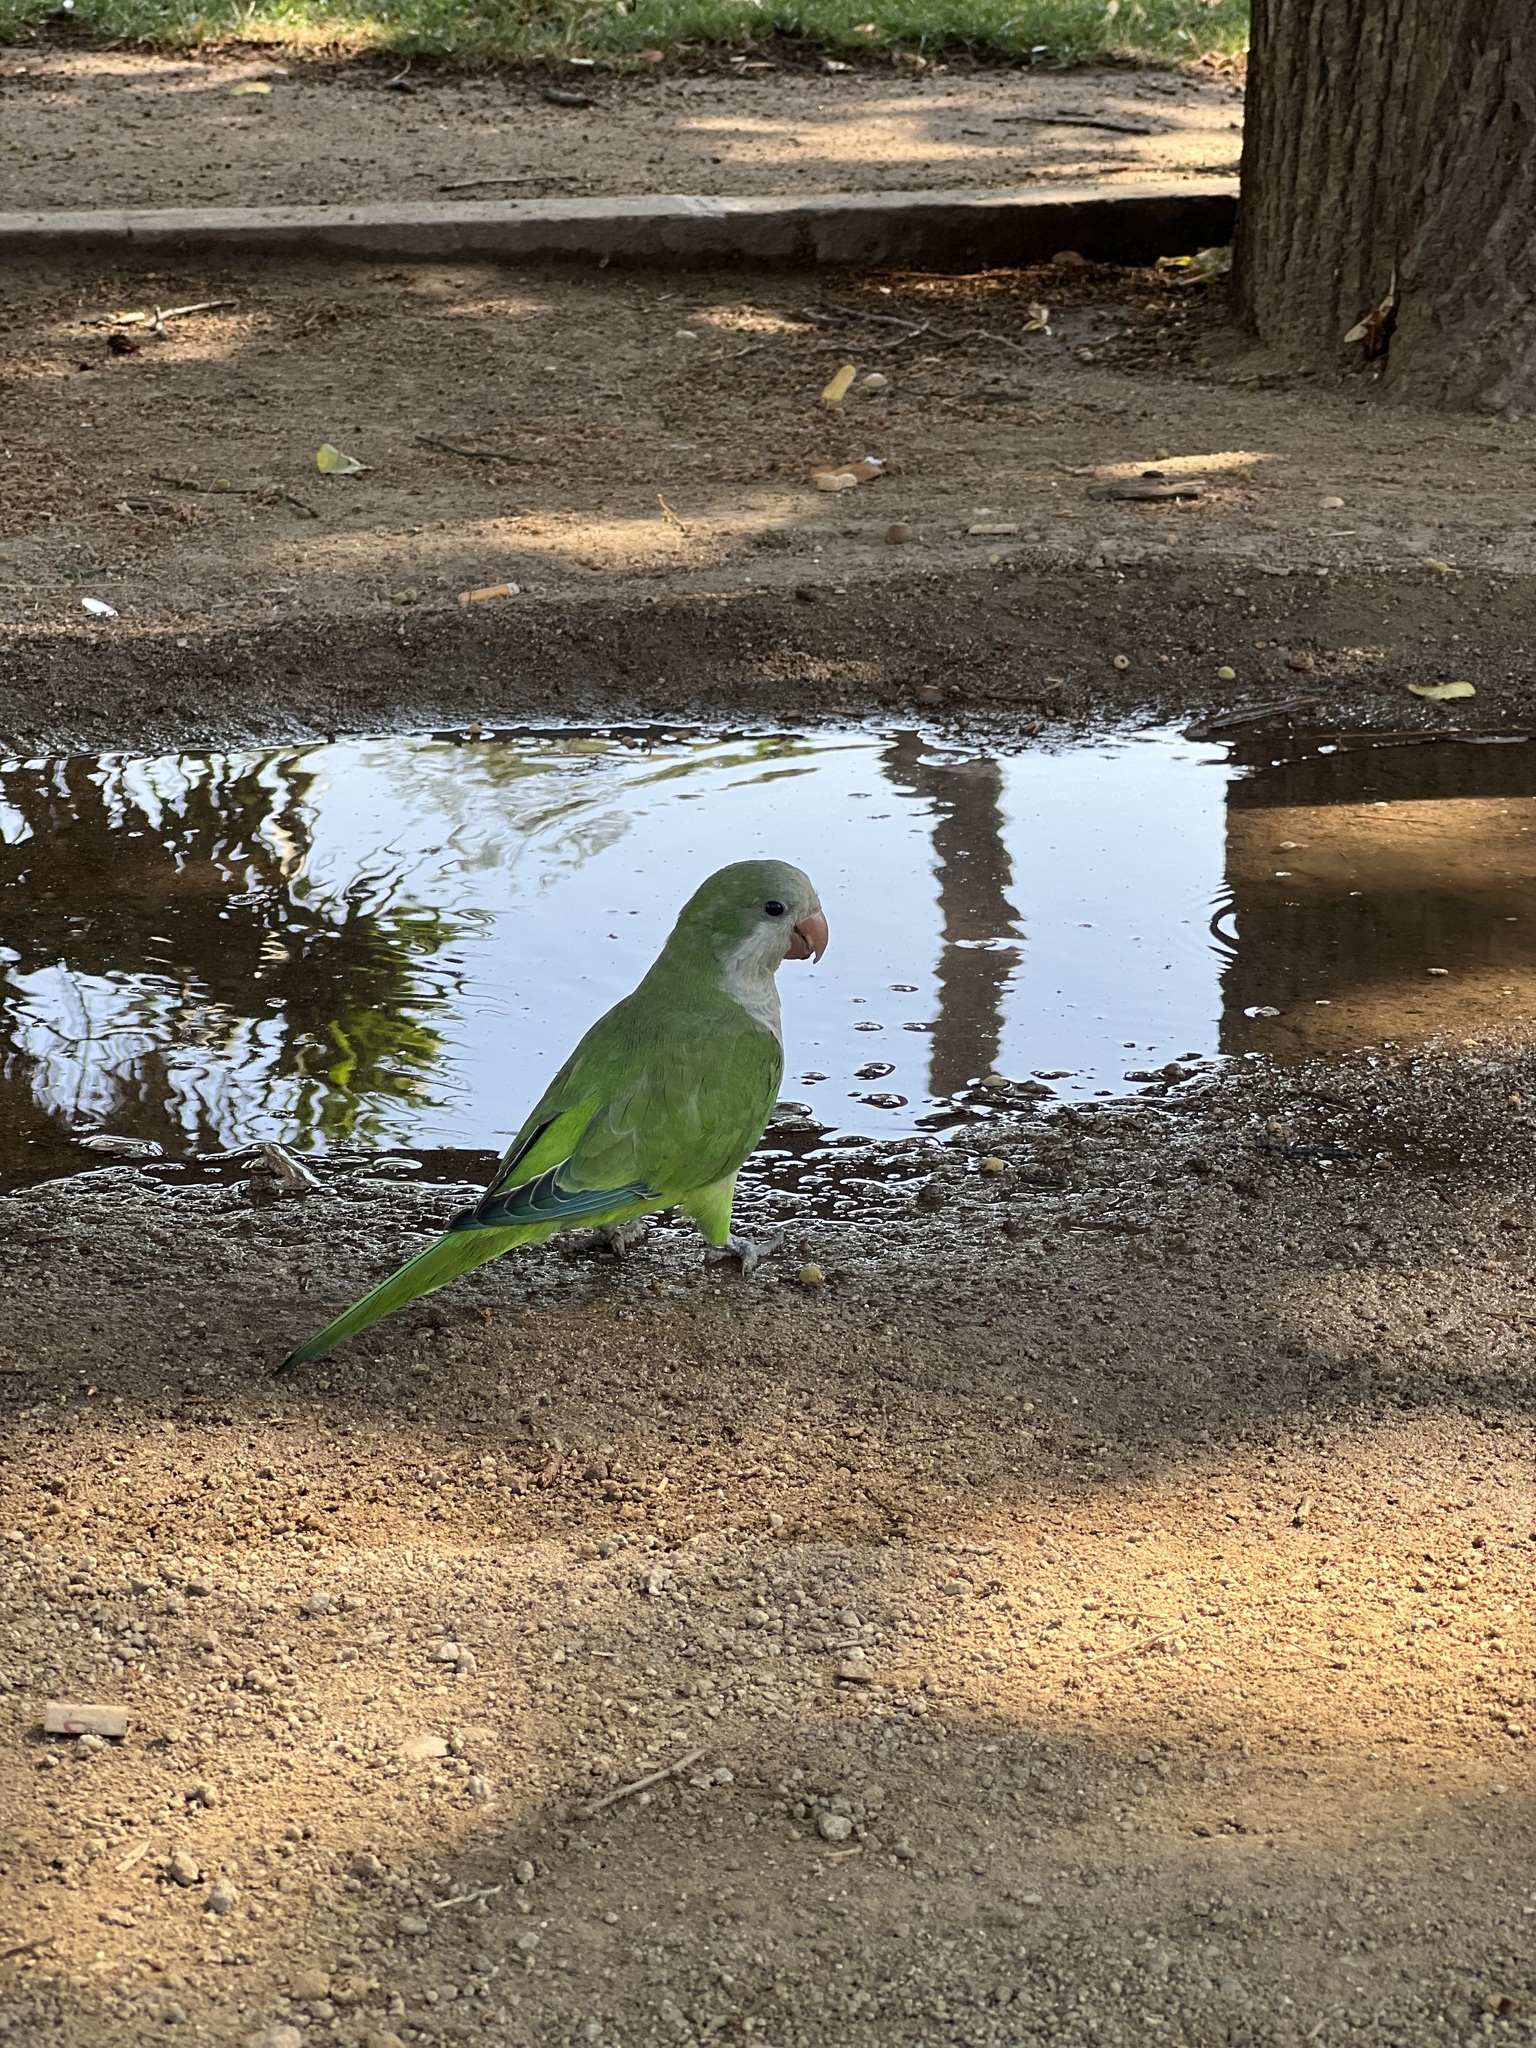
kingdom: Animalia
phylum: Chordata
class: Aves
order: Psittaciformes
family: Psittacidae
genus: Myiopsitta
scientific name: Myiopsitta monachus
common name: Monk parakeet
